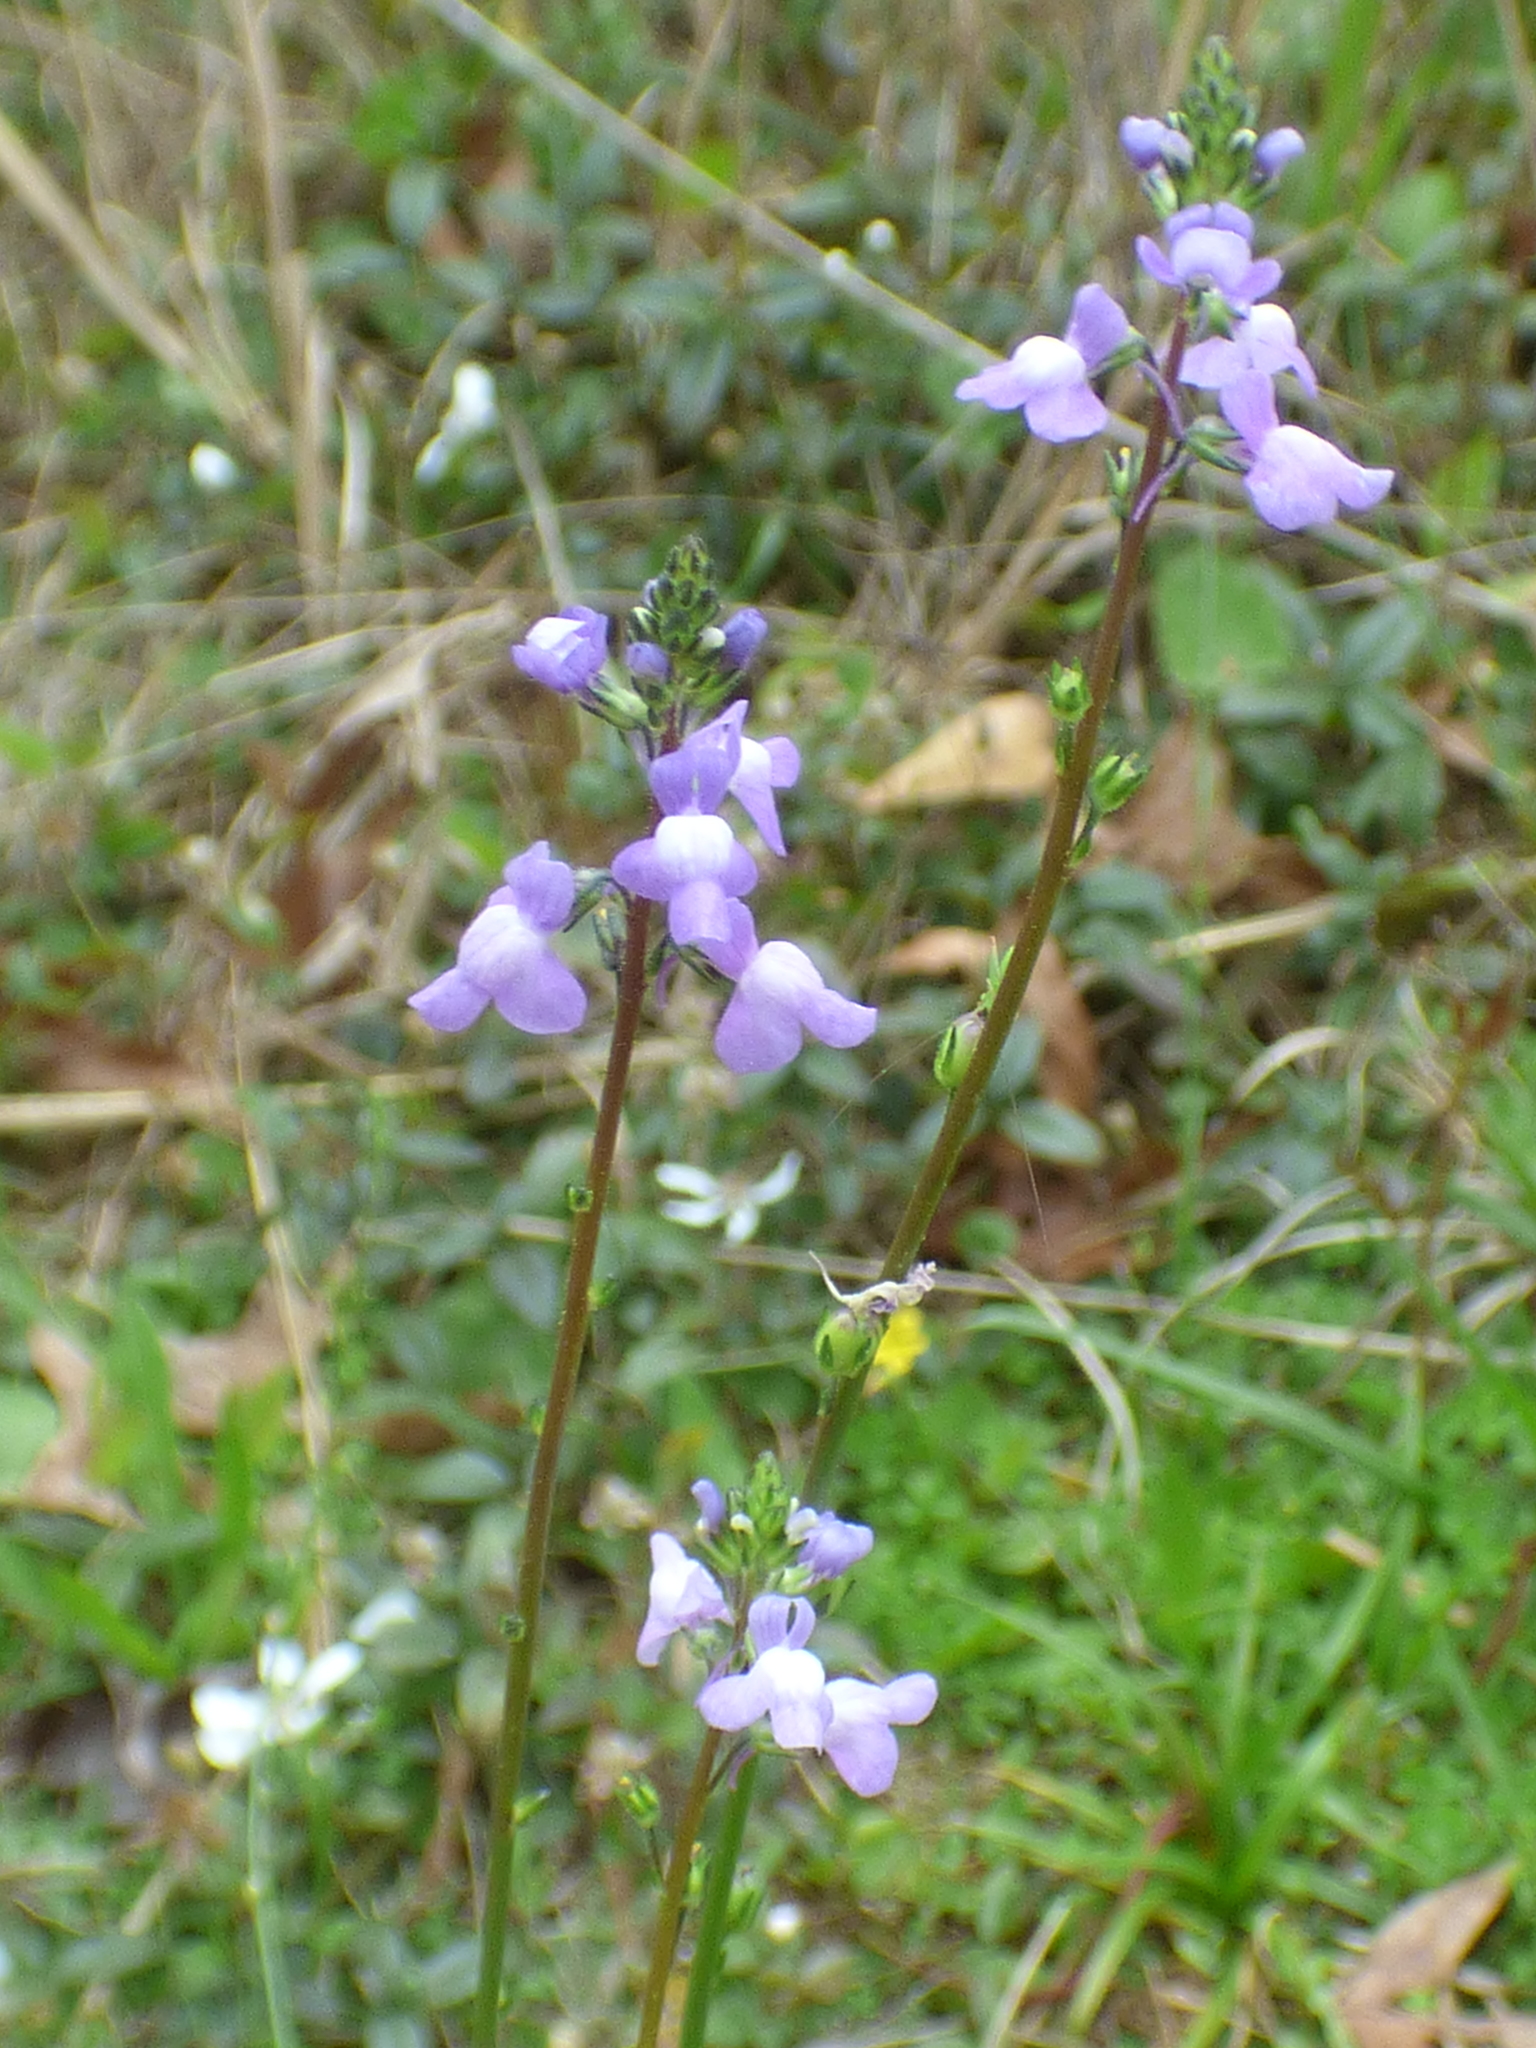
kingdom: Plantae
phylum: Tracheophyta
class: Magnoliopsida
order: Lamiales
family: Plantaginaceae
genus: Nuttallanthus
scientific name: Nuttallanthus canadensis
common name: Blue toadflax
